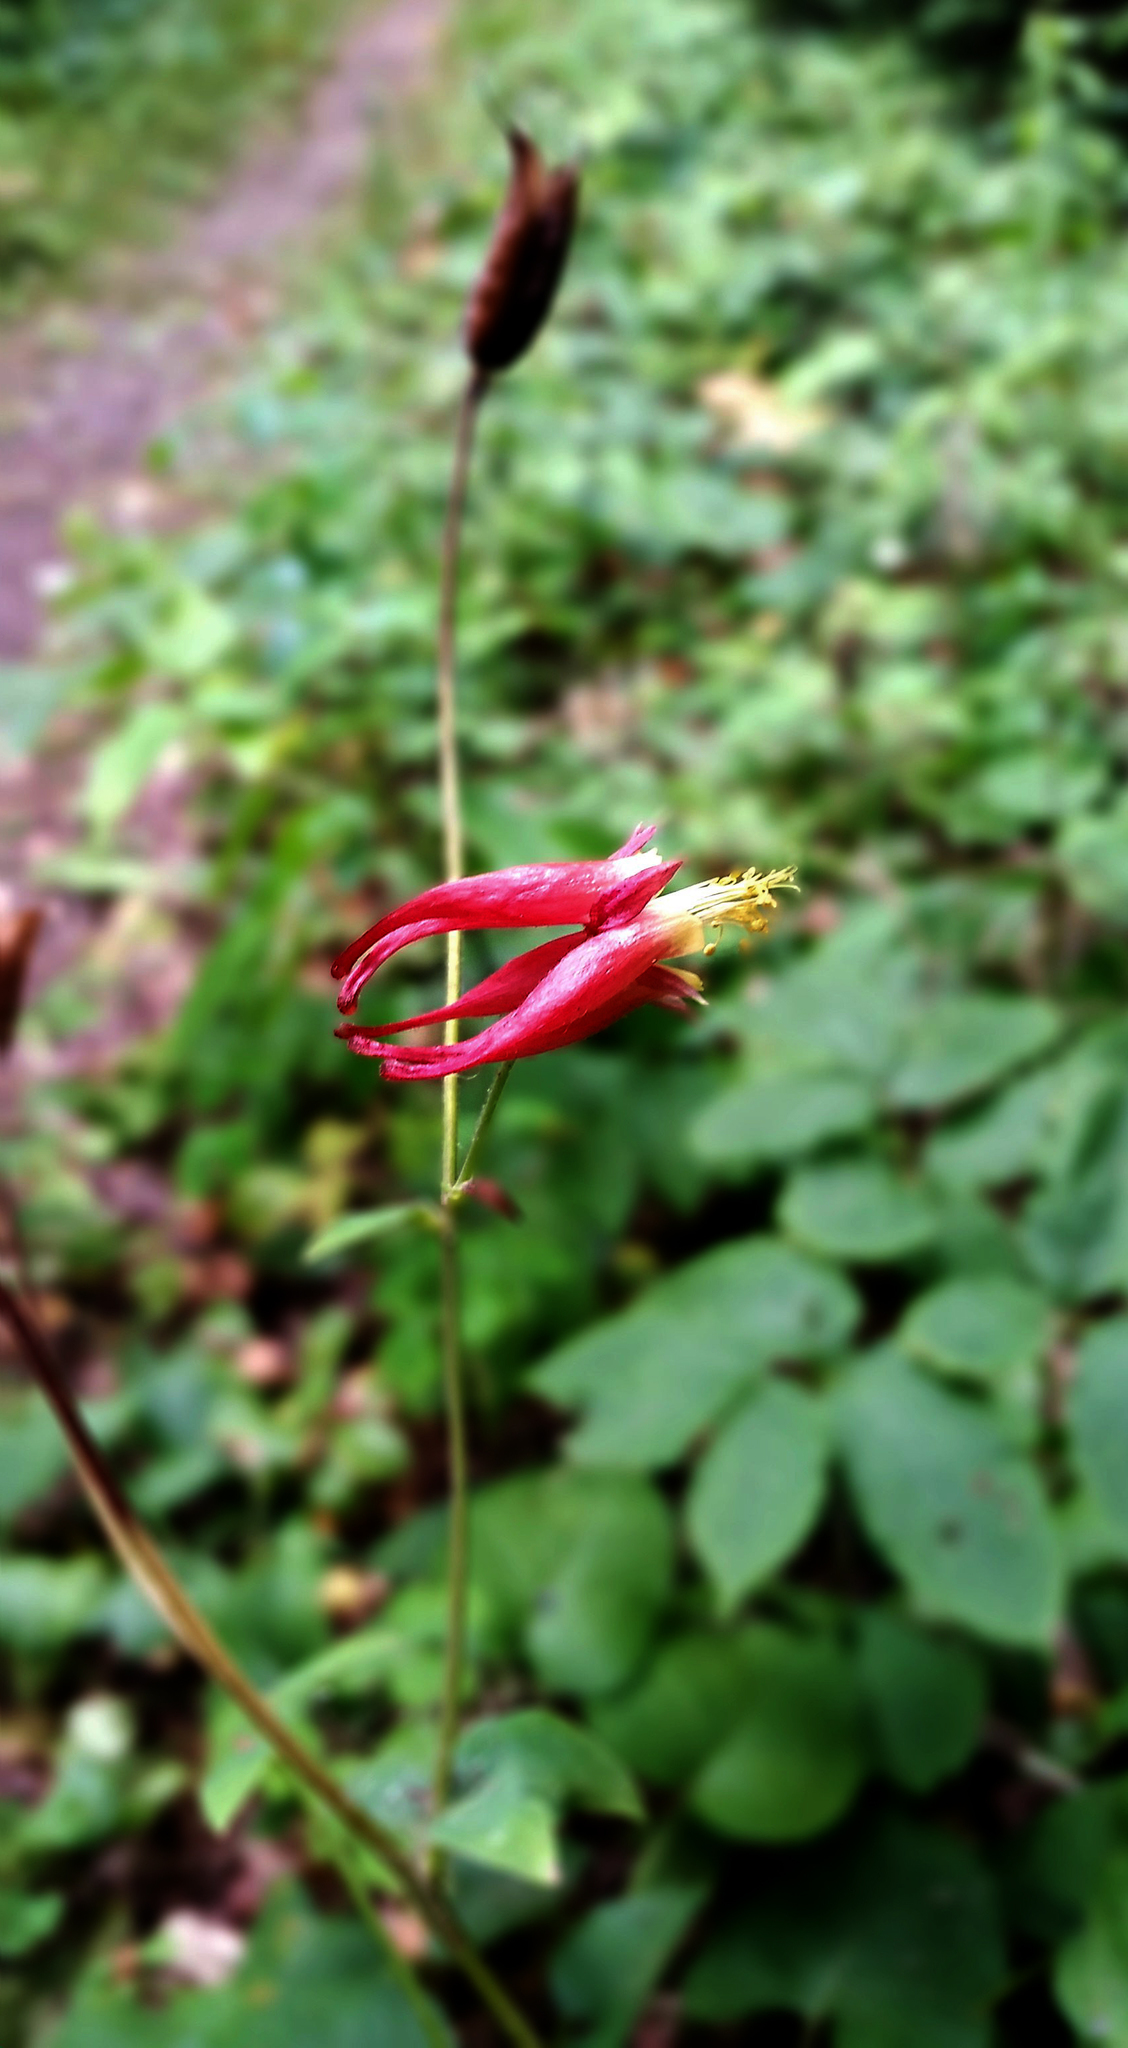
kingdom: Plantae
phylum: Tracheophyta
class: Magnoliopsida
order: Ranunculales
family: Ranunculaceae
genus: Aquilegia
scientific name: Aquilegia canadensis
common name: American columbine
